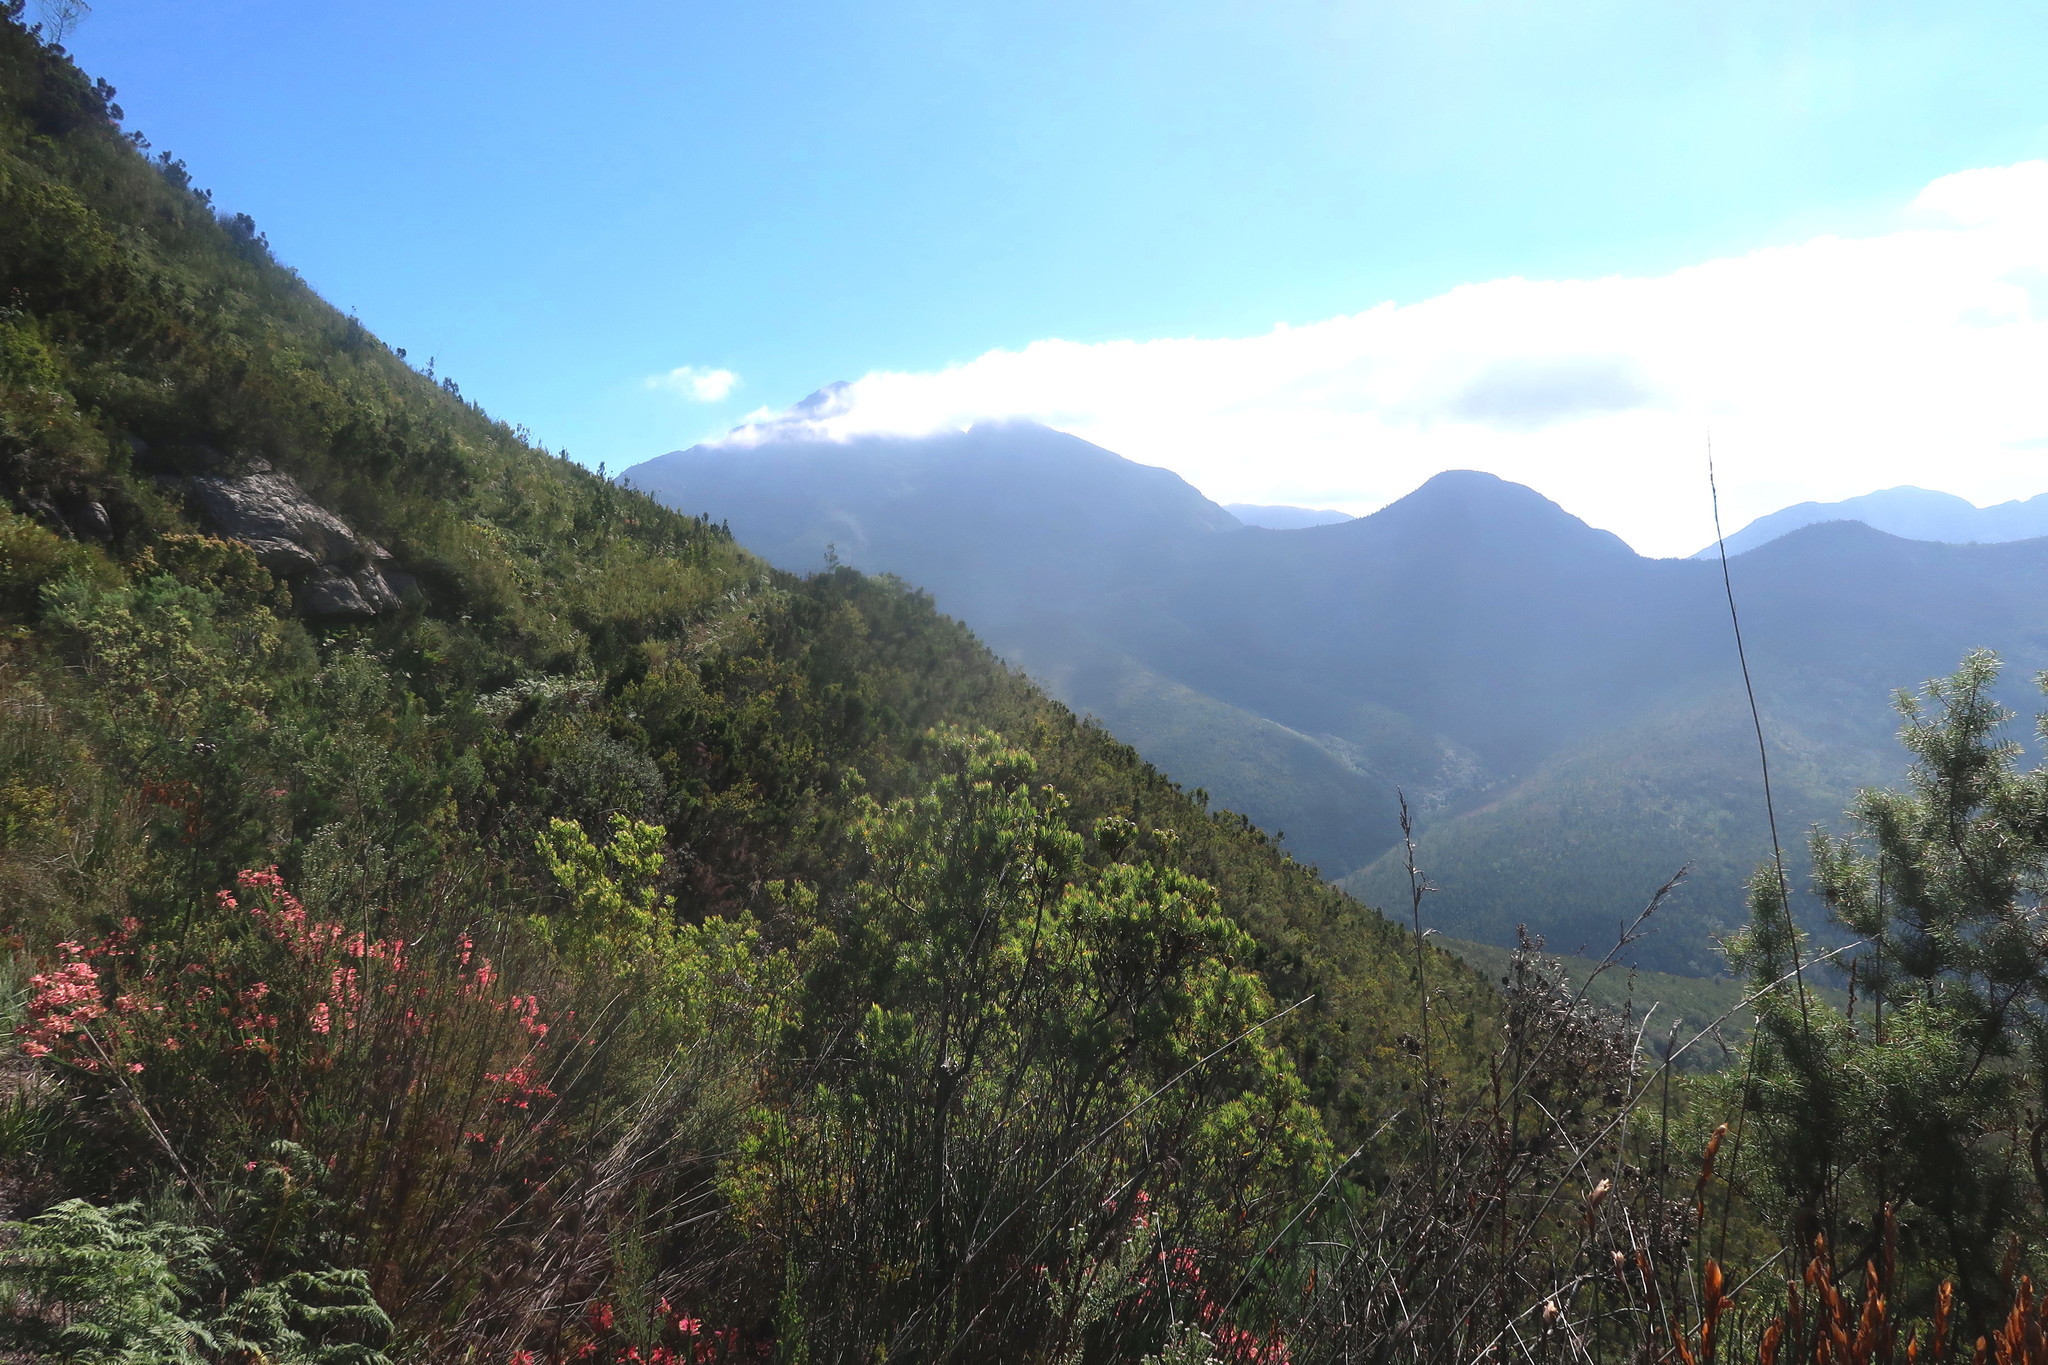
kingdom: Plantae
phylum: Tracheophyta
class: Magnoliopsida
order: Proteales
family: Proteaceae
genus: Hakea
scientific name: Hakea sericea
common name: Needle bush
